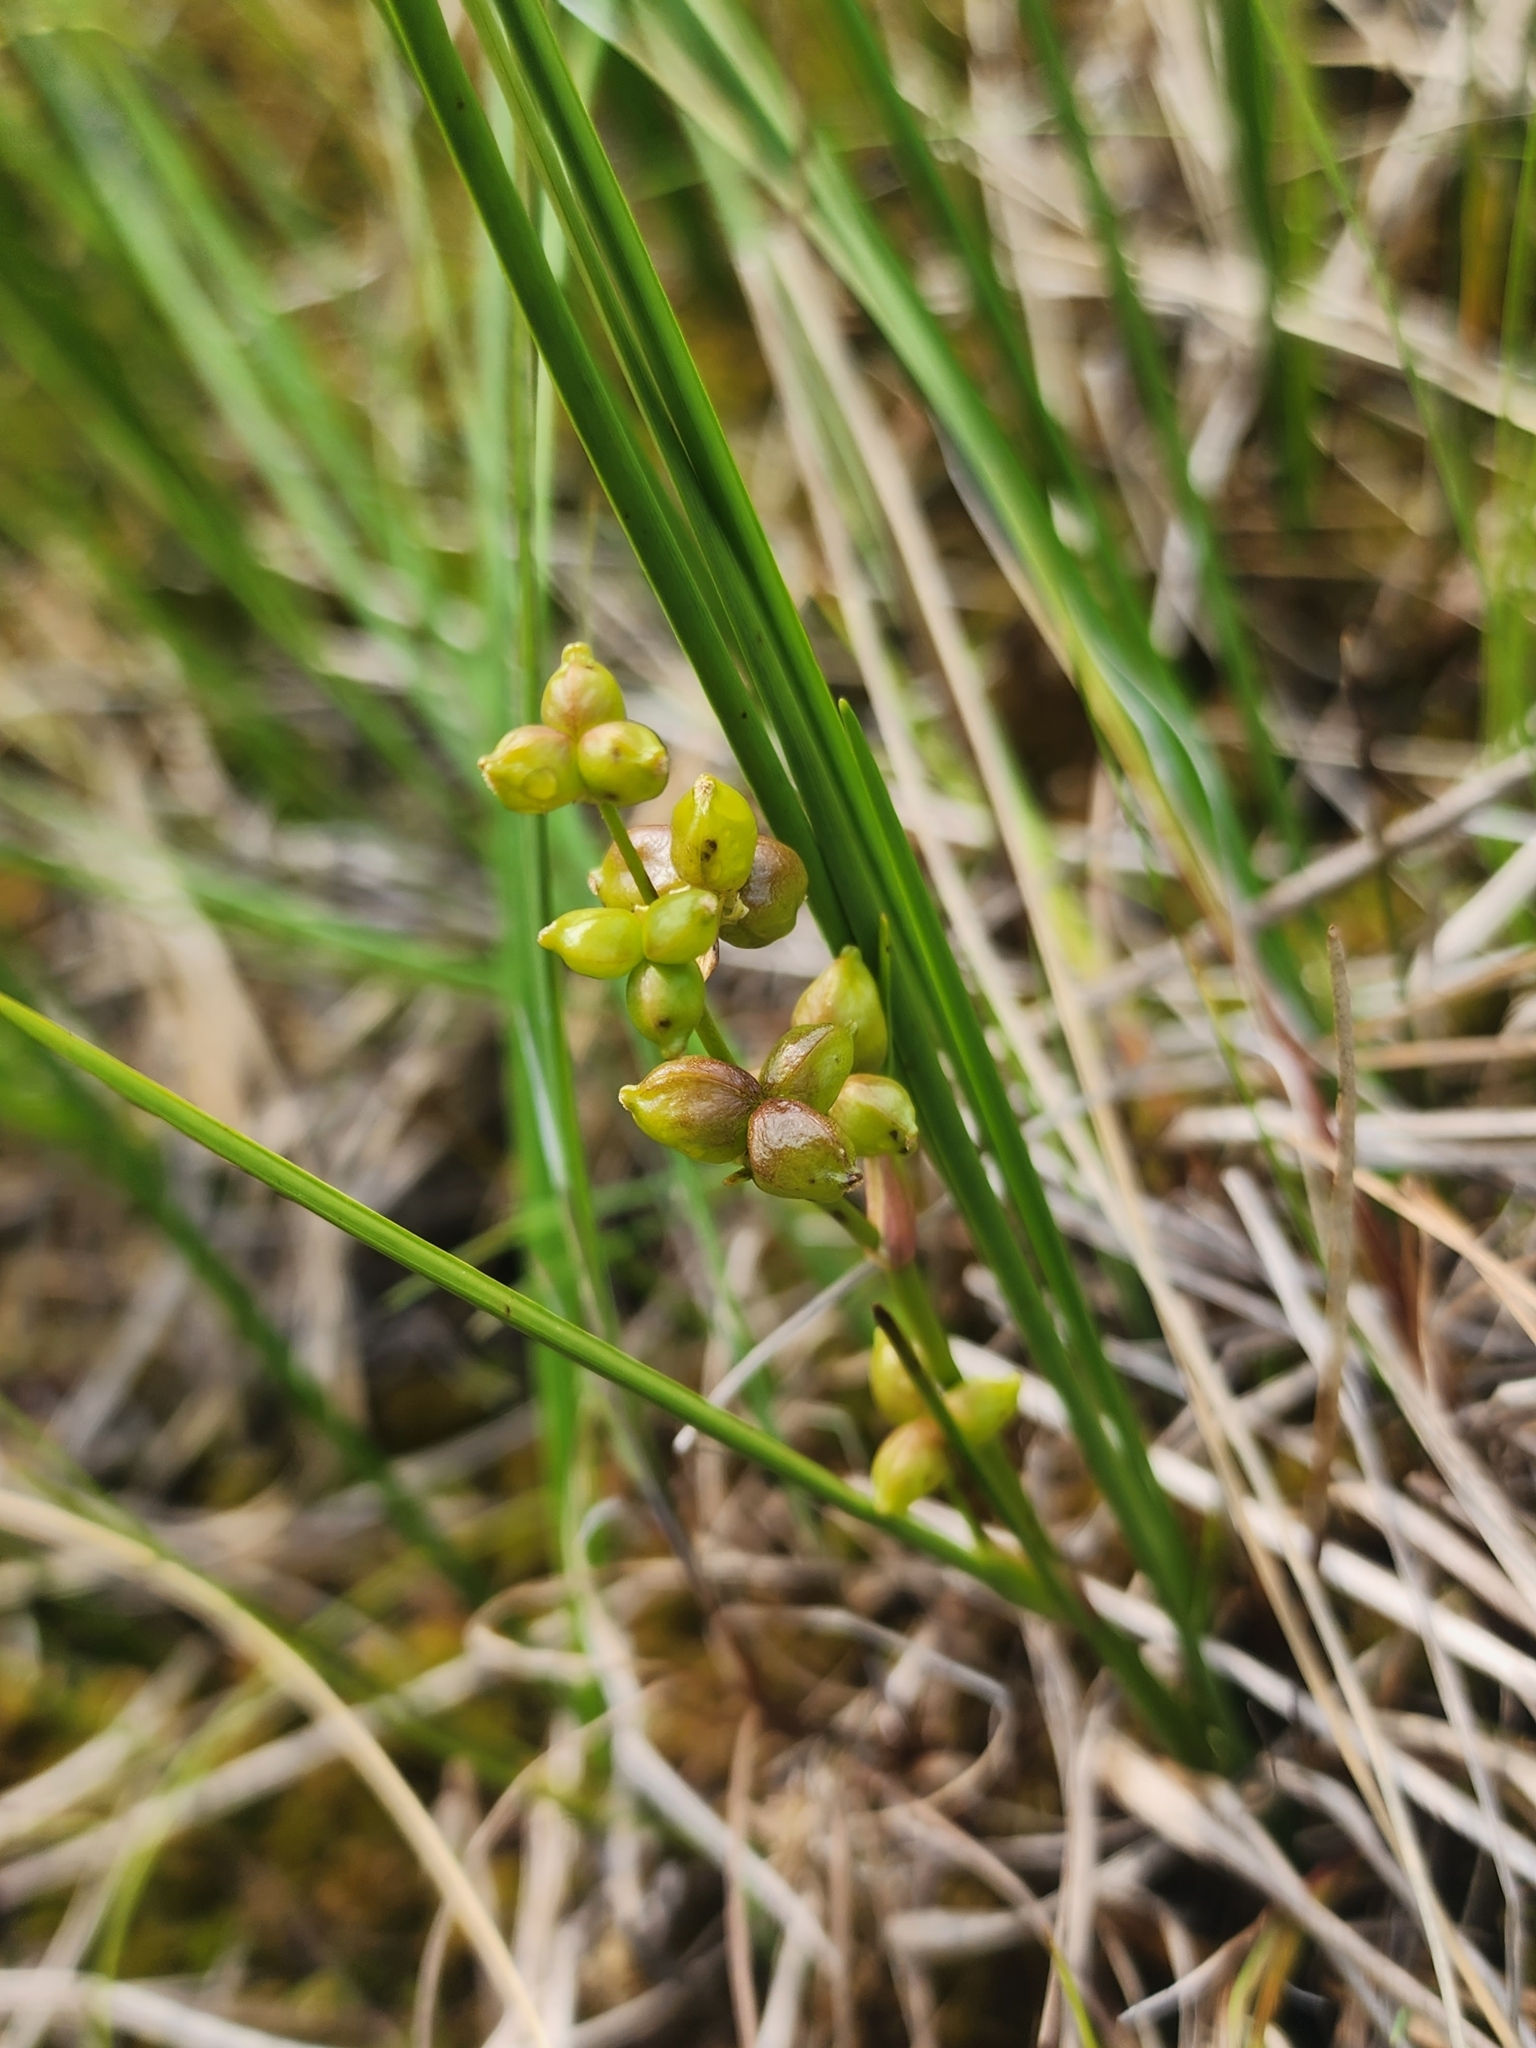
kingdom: Plantae
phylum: Tracheophyta
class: Liliopsida
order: Alismatales
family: Scheuchzeriaceae
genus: Scheuchzeria
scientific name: Scheuchzeria palustris
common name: Rannoch-rush
